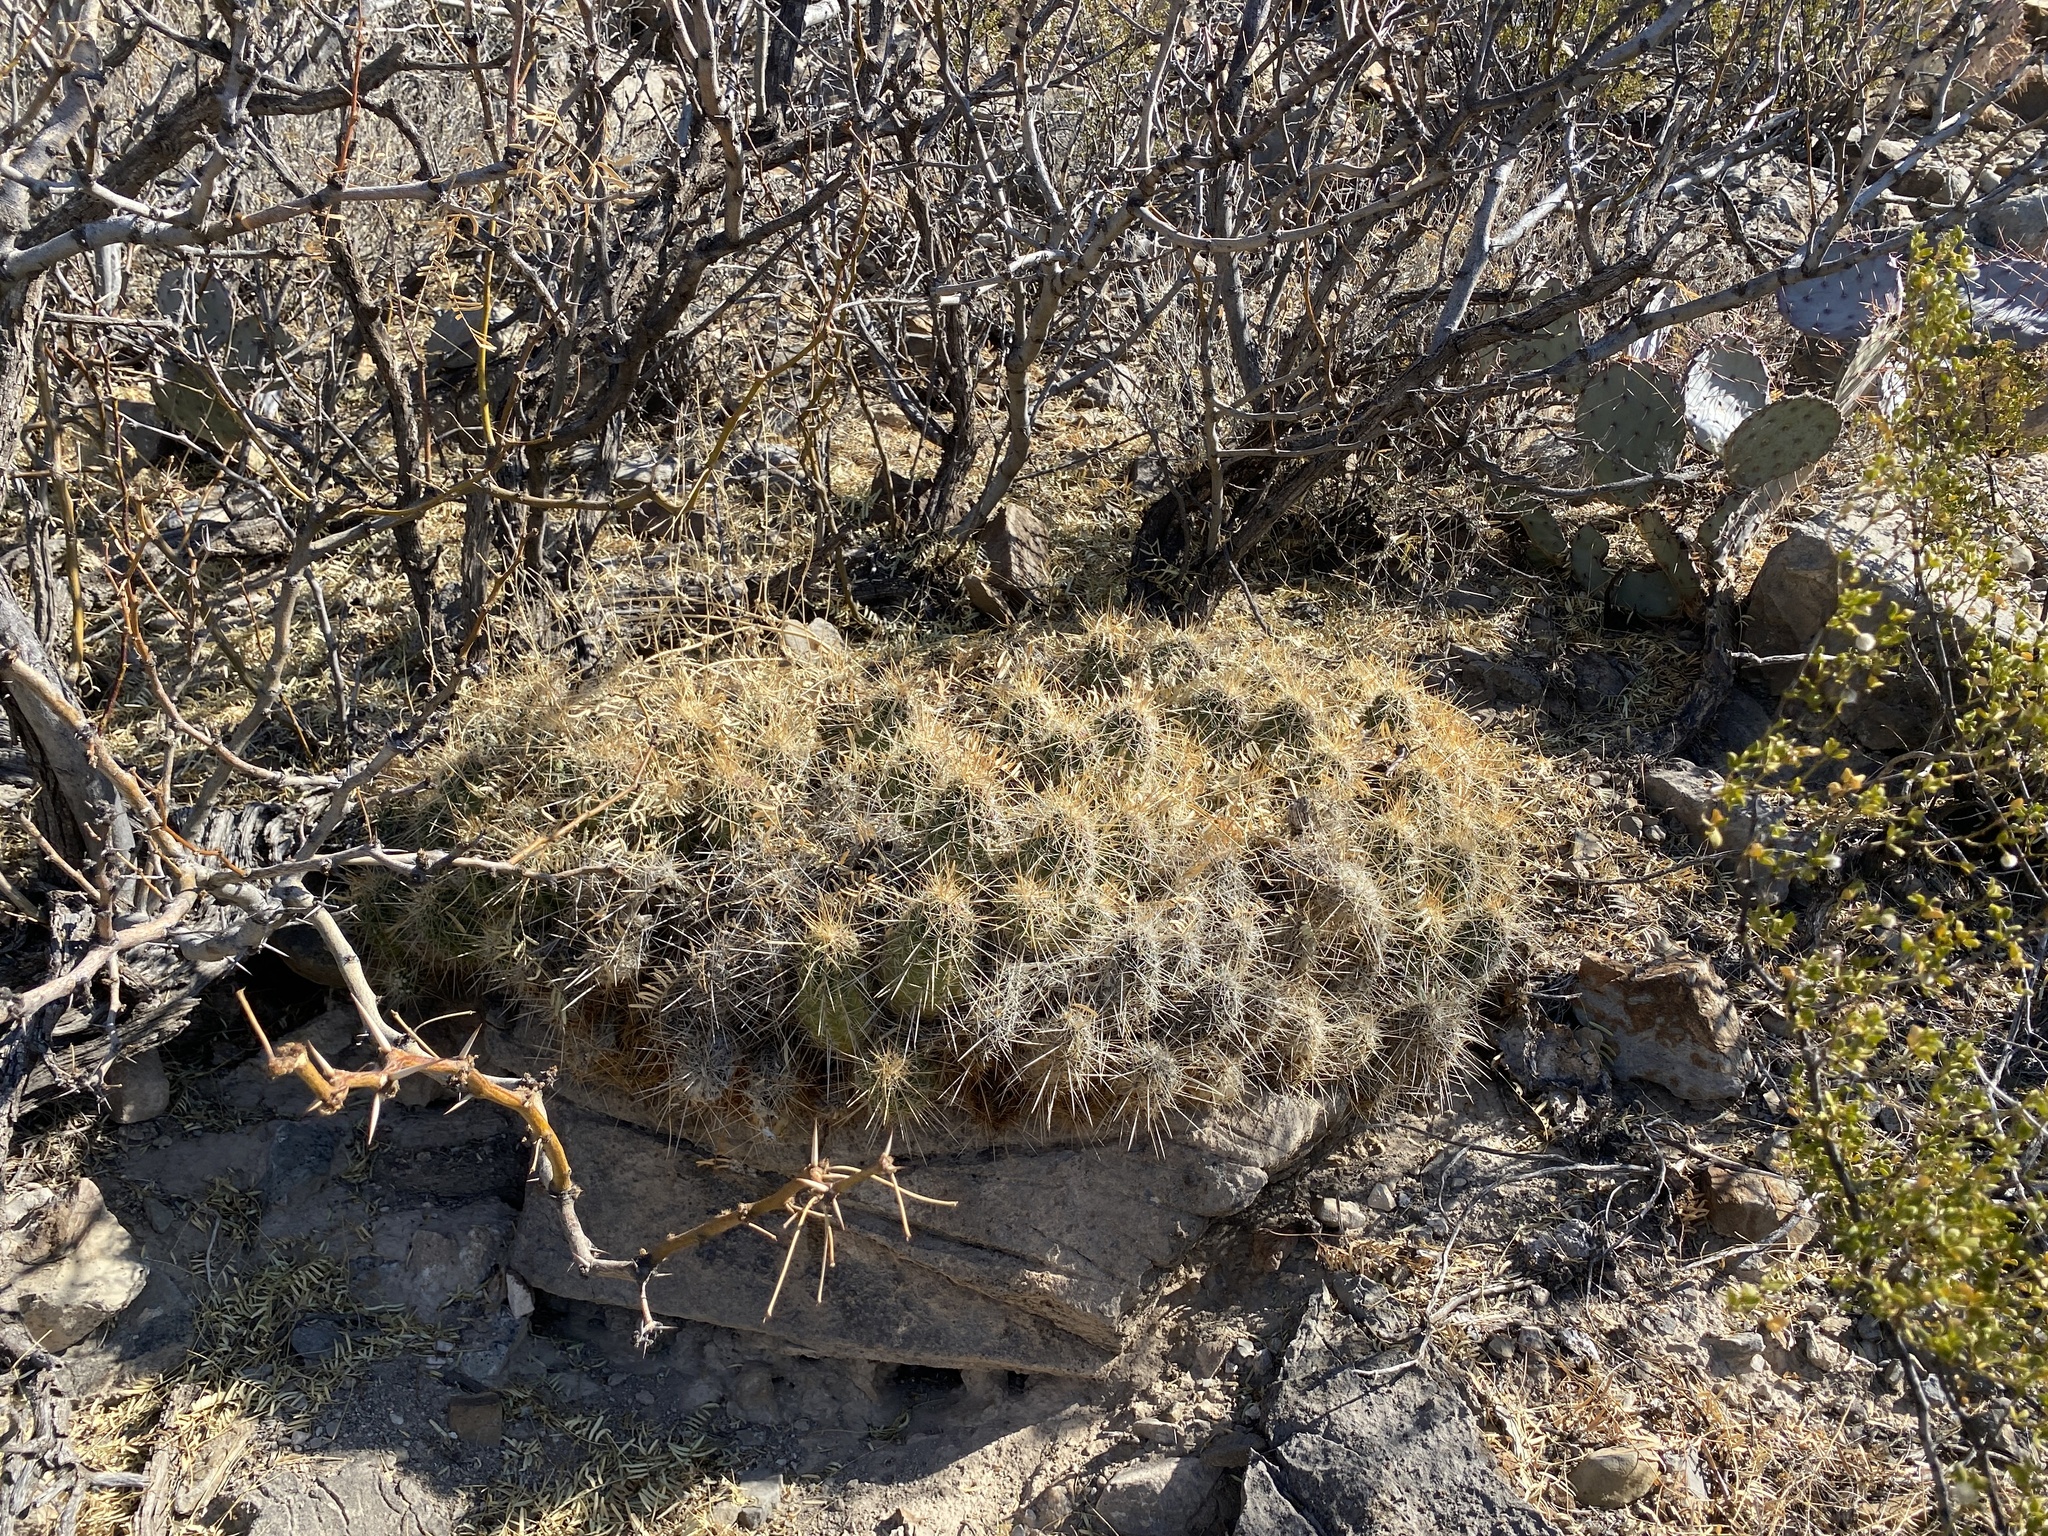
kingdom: Plantae
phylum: Tracheophyta
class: Magnoliopsida
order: Caryophyllales
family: Cactaceae
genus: Echinocereus
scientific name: Echinocereus stramineus
